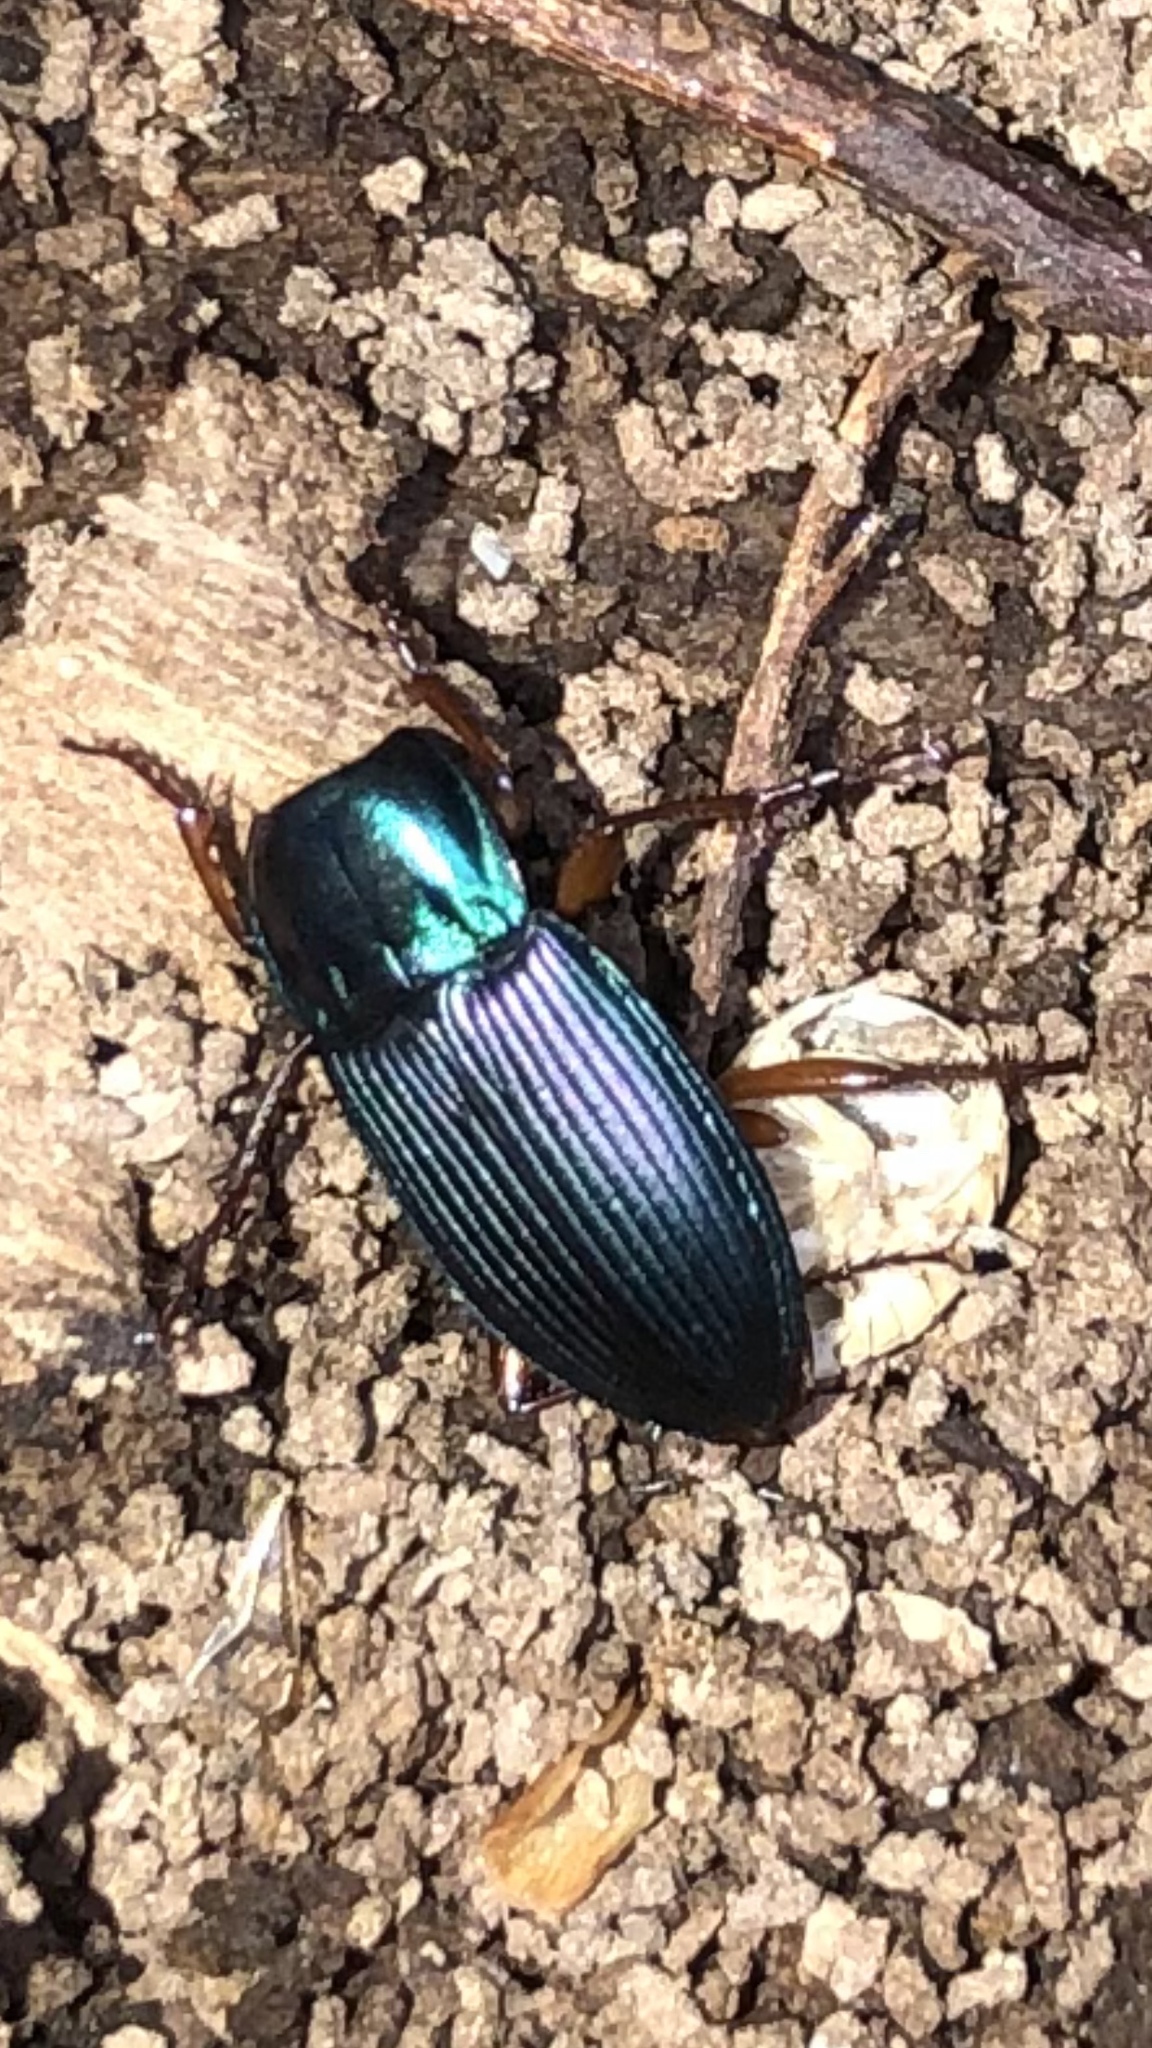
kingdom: Animalia
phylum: Arthropoda
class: Insecta
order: Coleoptera
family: Carabidae
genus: Poecilus
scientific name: Poecilus lucublandus
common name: Woodland ground beetle
